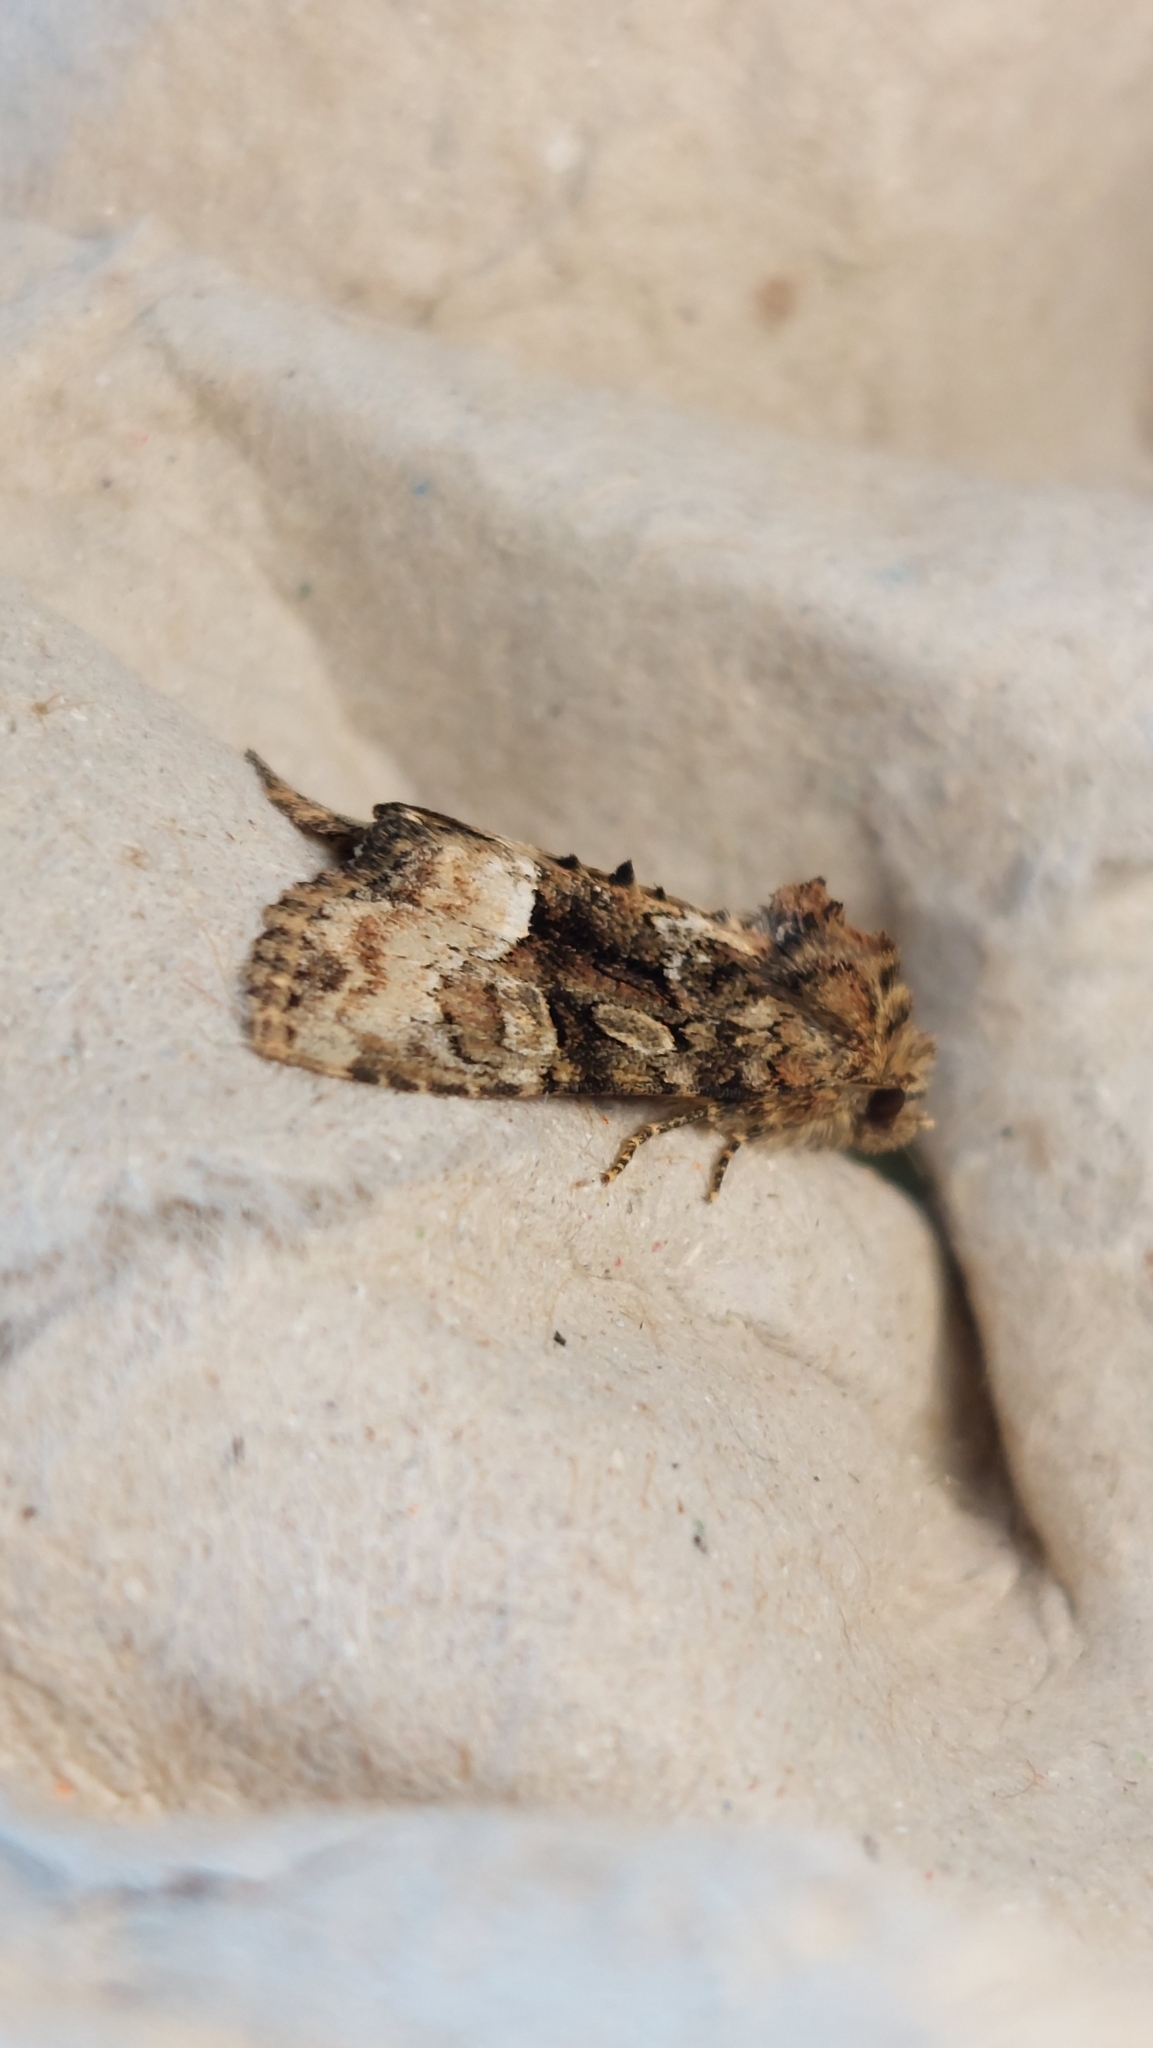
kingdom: Animalia
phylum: Arthropoda
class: Insecta
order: Lepidoptera
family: Noctuidae
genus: Oligia
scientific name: Oligia strigilis
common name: Marbled minor
